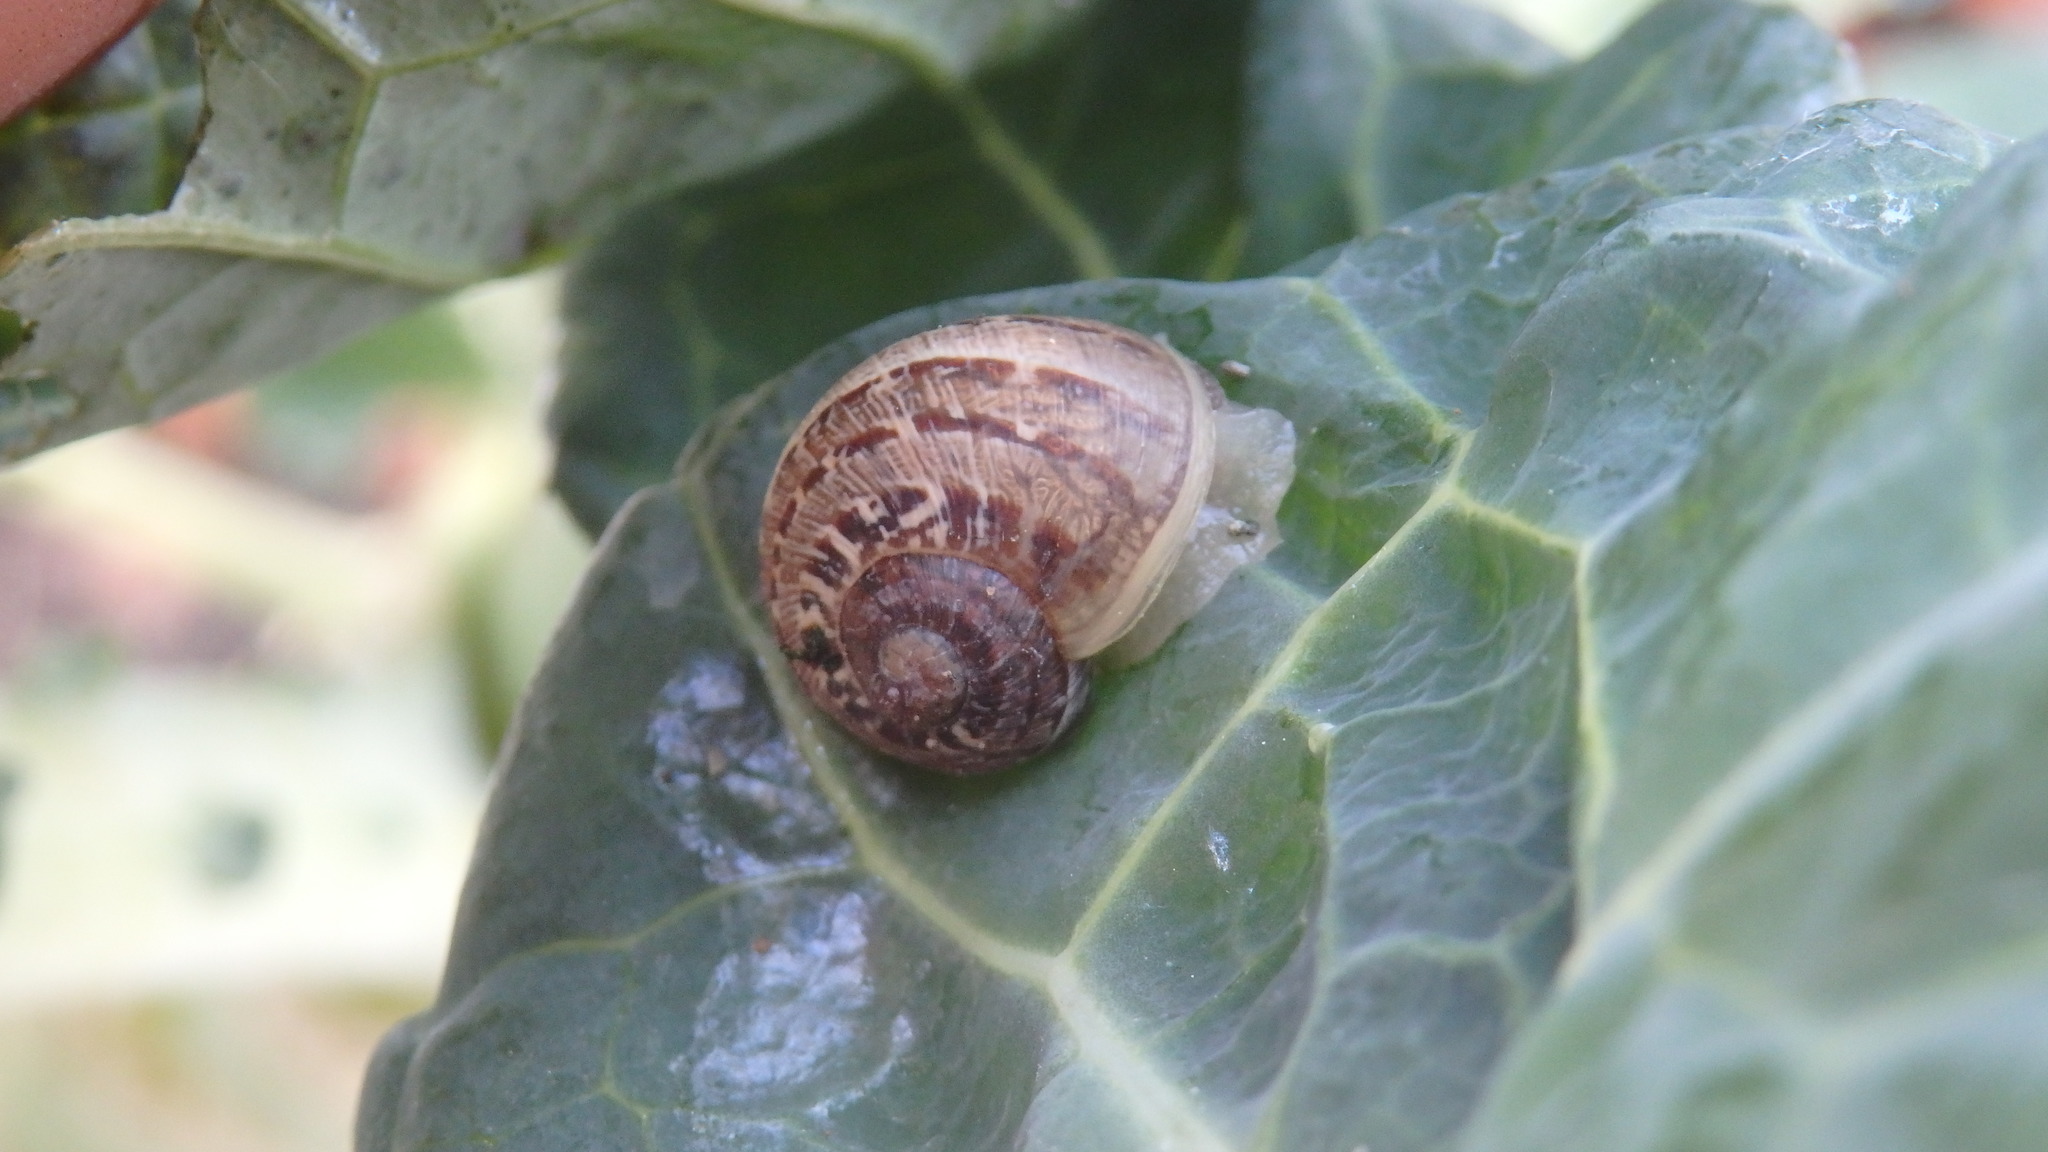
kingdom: Animalia
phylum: Mollusca
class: Gastropoda
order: Stylommatophora
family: Helicidae
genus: Cornu
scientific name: Cornu aspersum
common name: Brown garden snail
